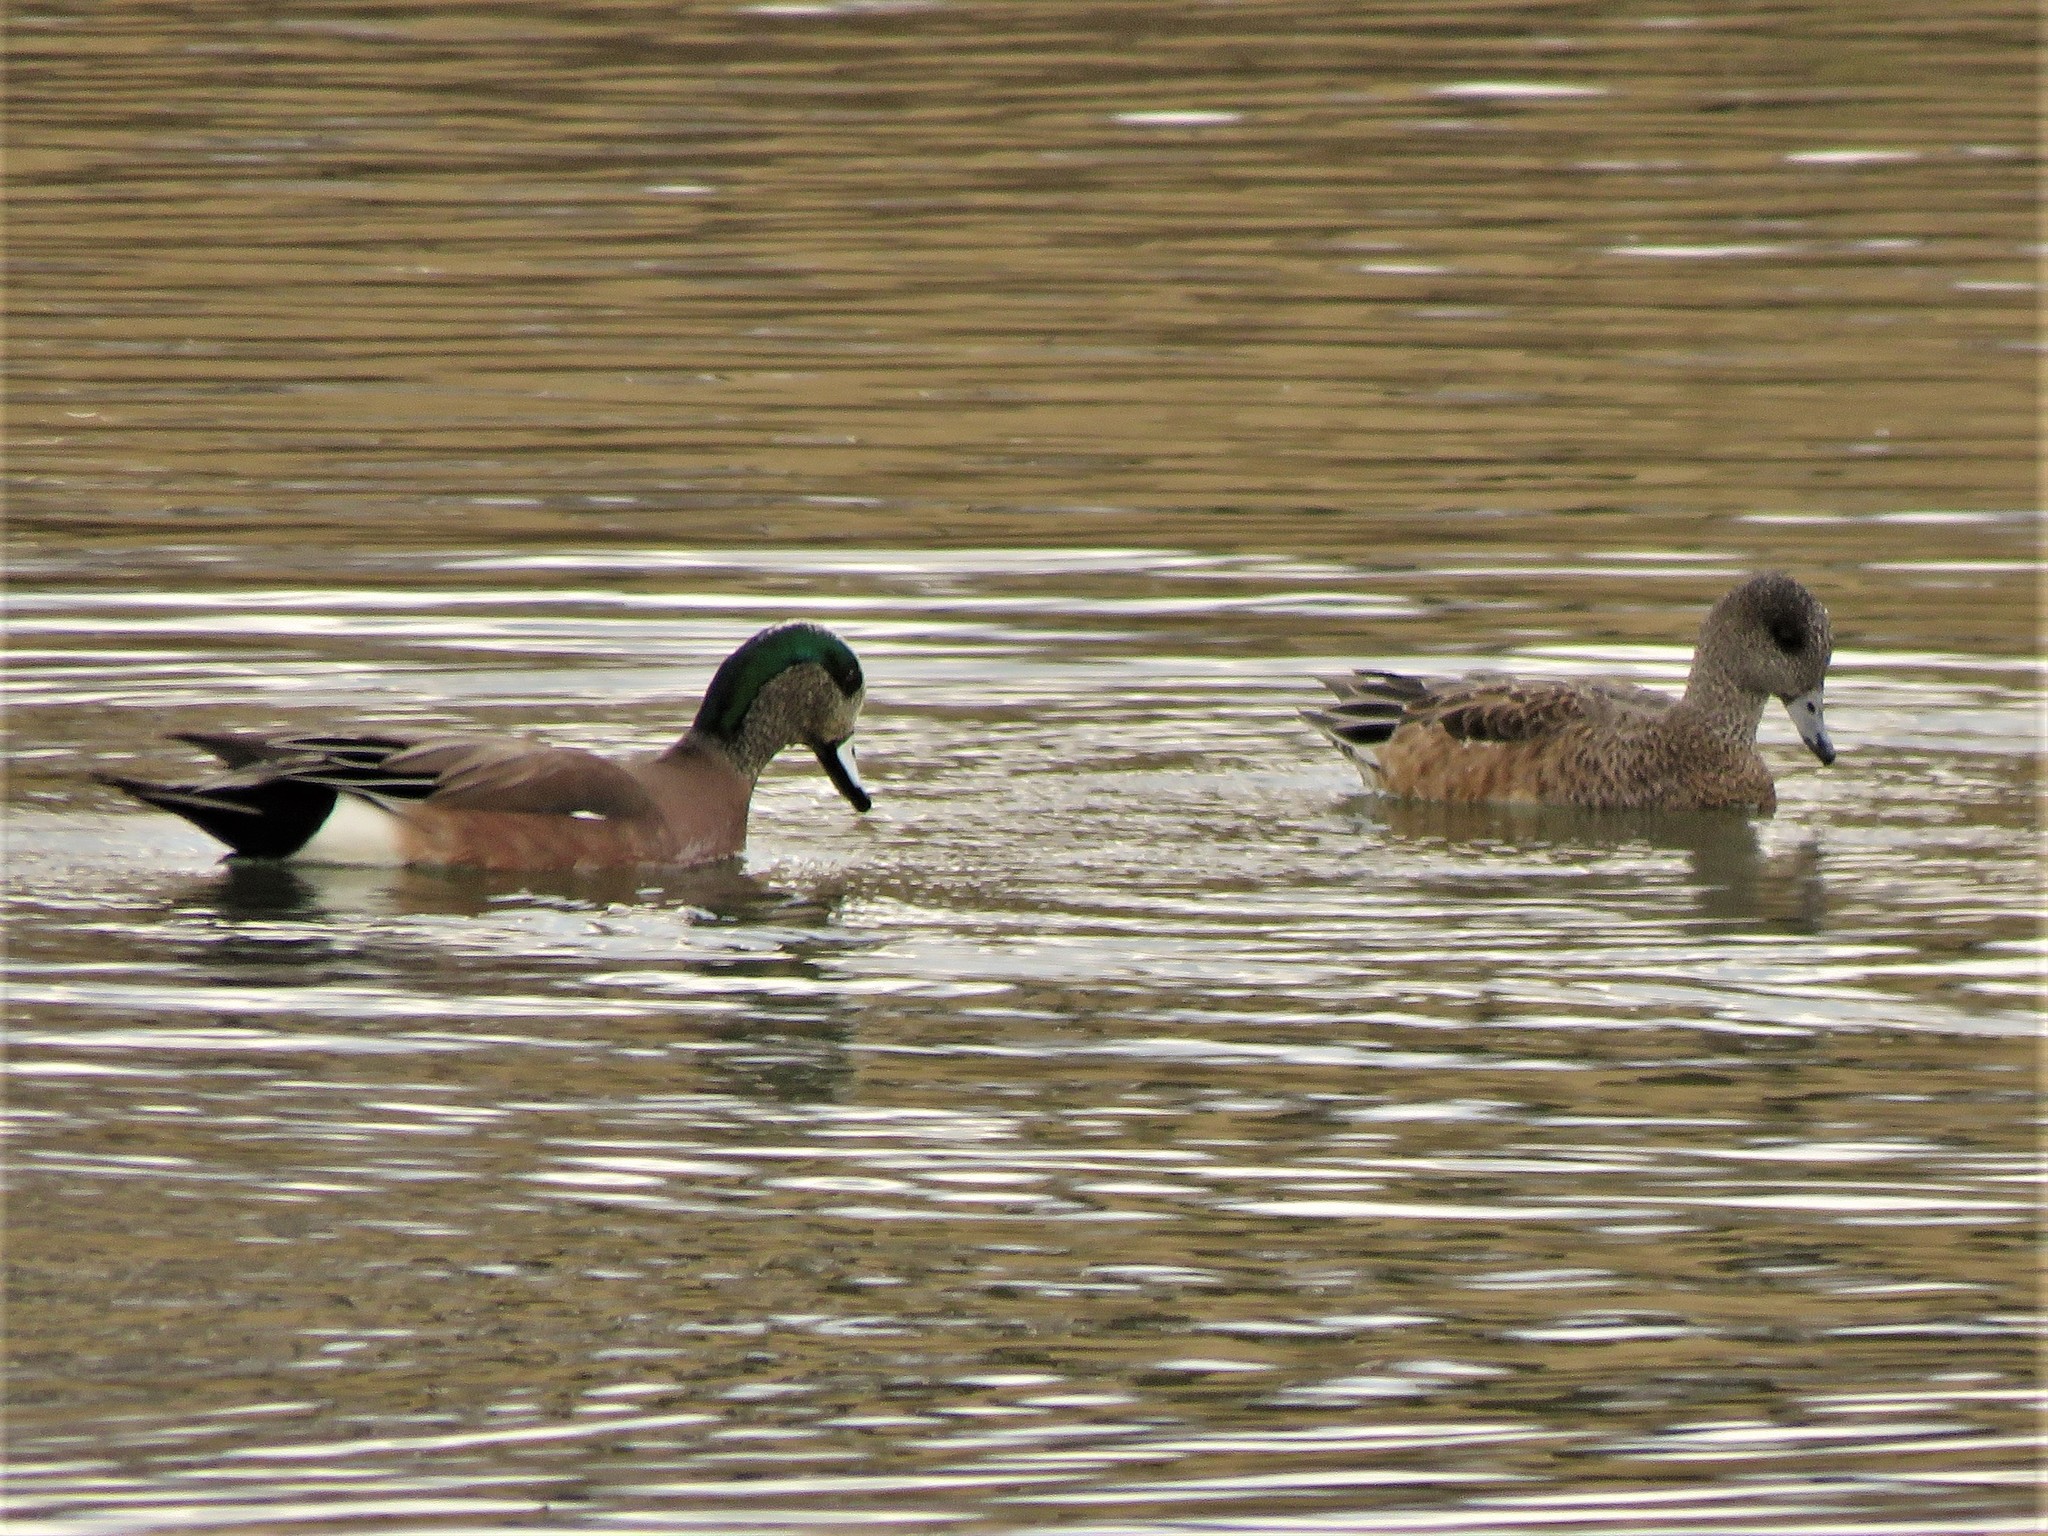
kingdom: Animalia
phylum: Chordata
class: Aves
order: Anseriformes
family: Anatidae
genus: Mareca
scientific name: Mareca americana
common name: American wigeon
